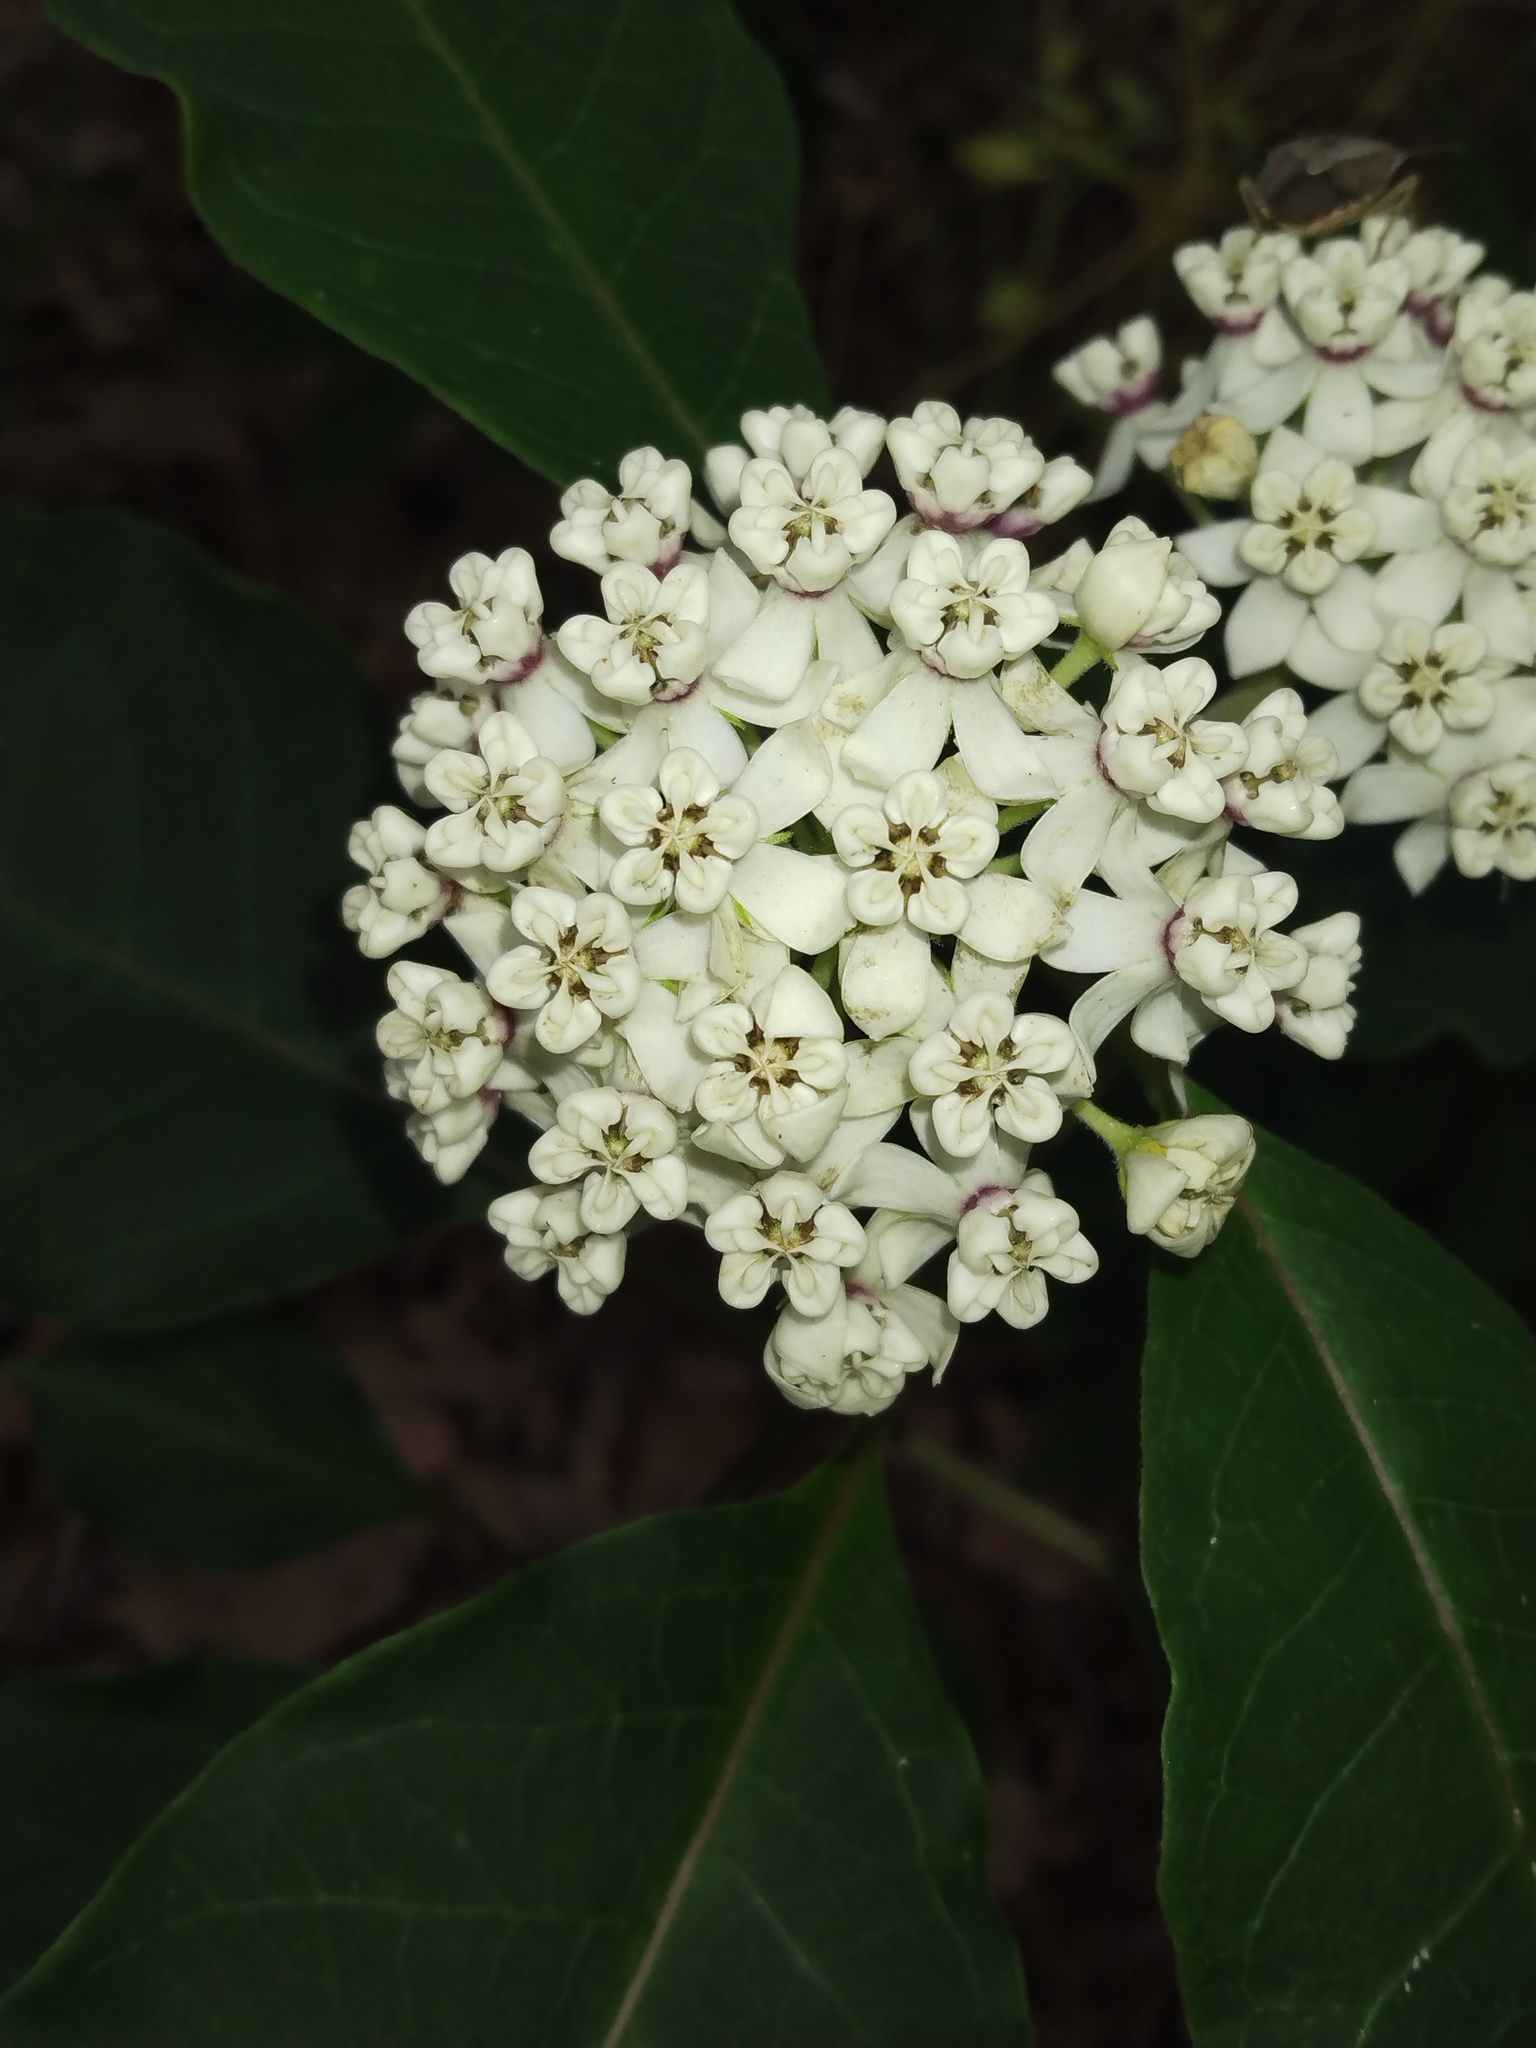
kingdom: Plantae
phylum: Tracheophyta
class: Magnoliopsida
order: Gentianales
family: Apocynaceae
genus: Asclepias
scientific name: Asclepias variegata
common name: Variegated milkweed
